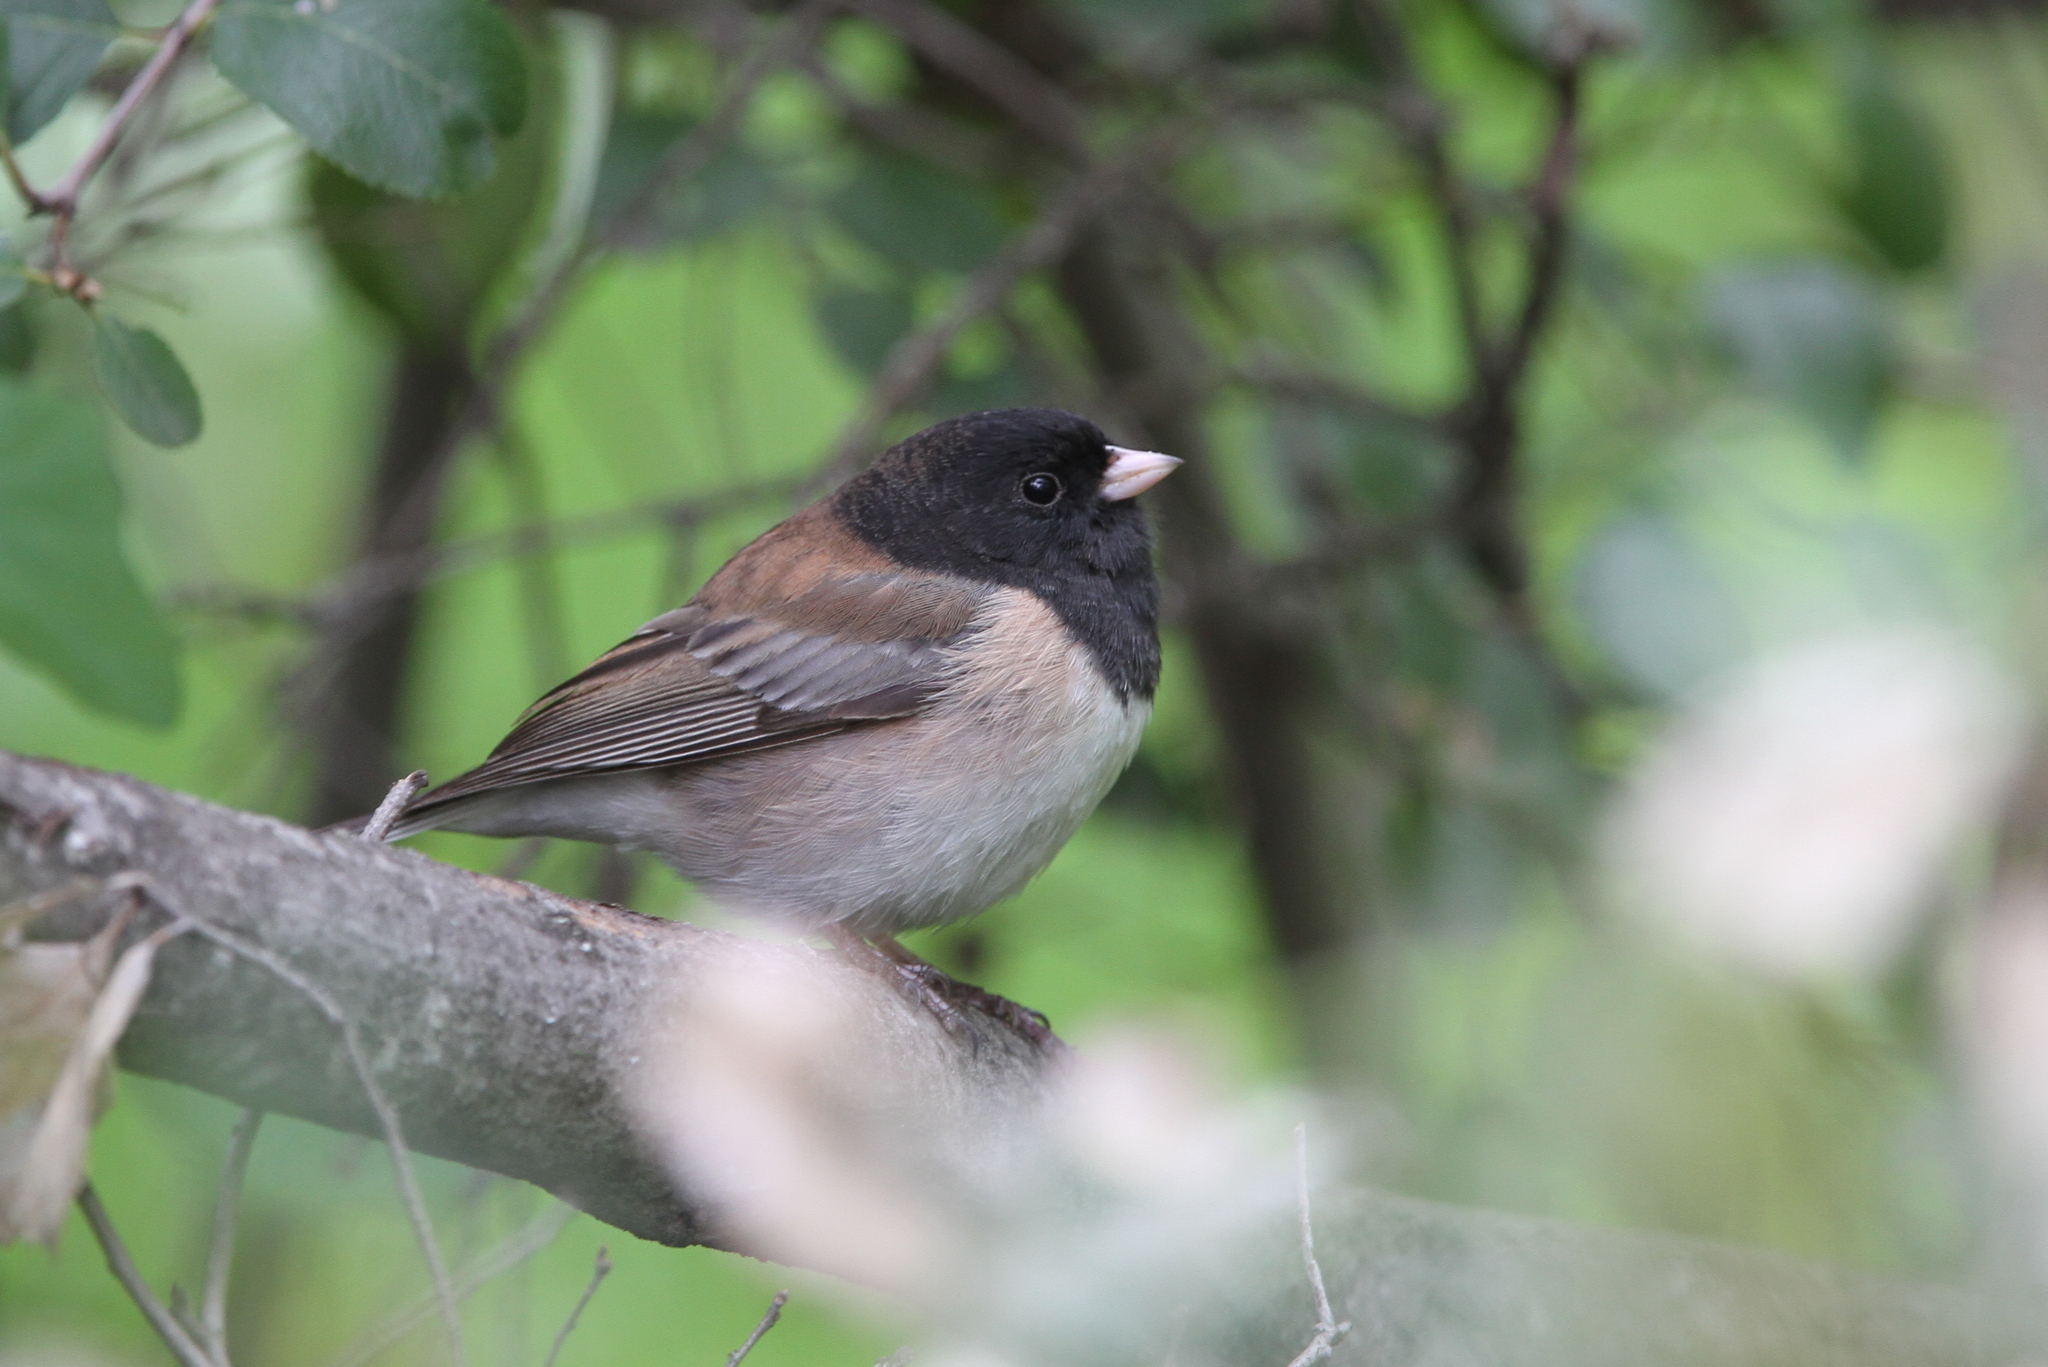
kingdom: Animalia
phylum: Chordata
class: Aves
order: Passeriformes
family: Passerellidae
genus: Junco
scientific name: Junco hyemalis
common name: Dark-eyed junco
